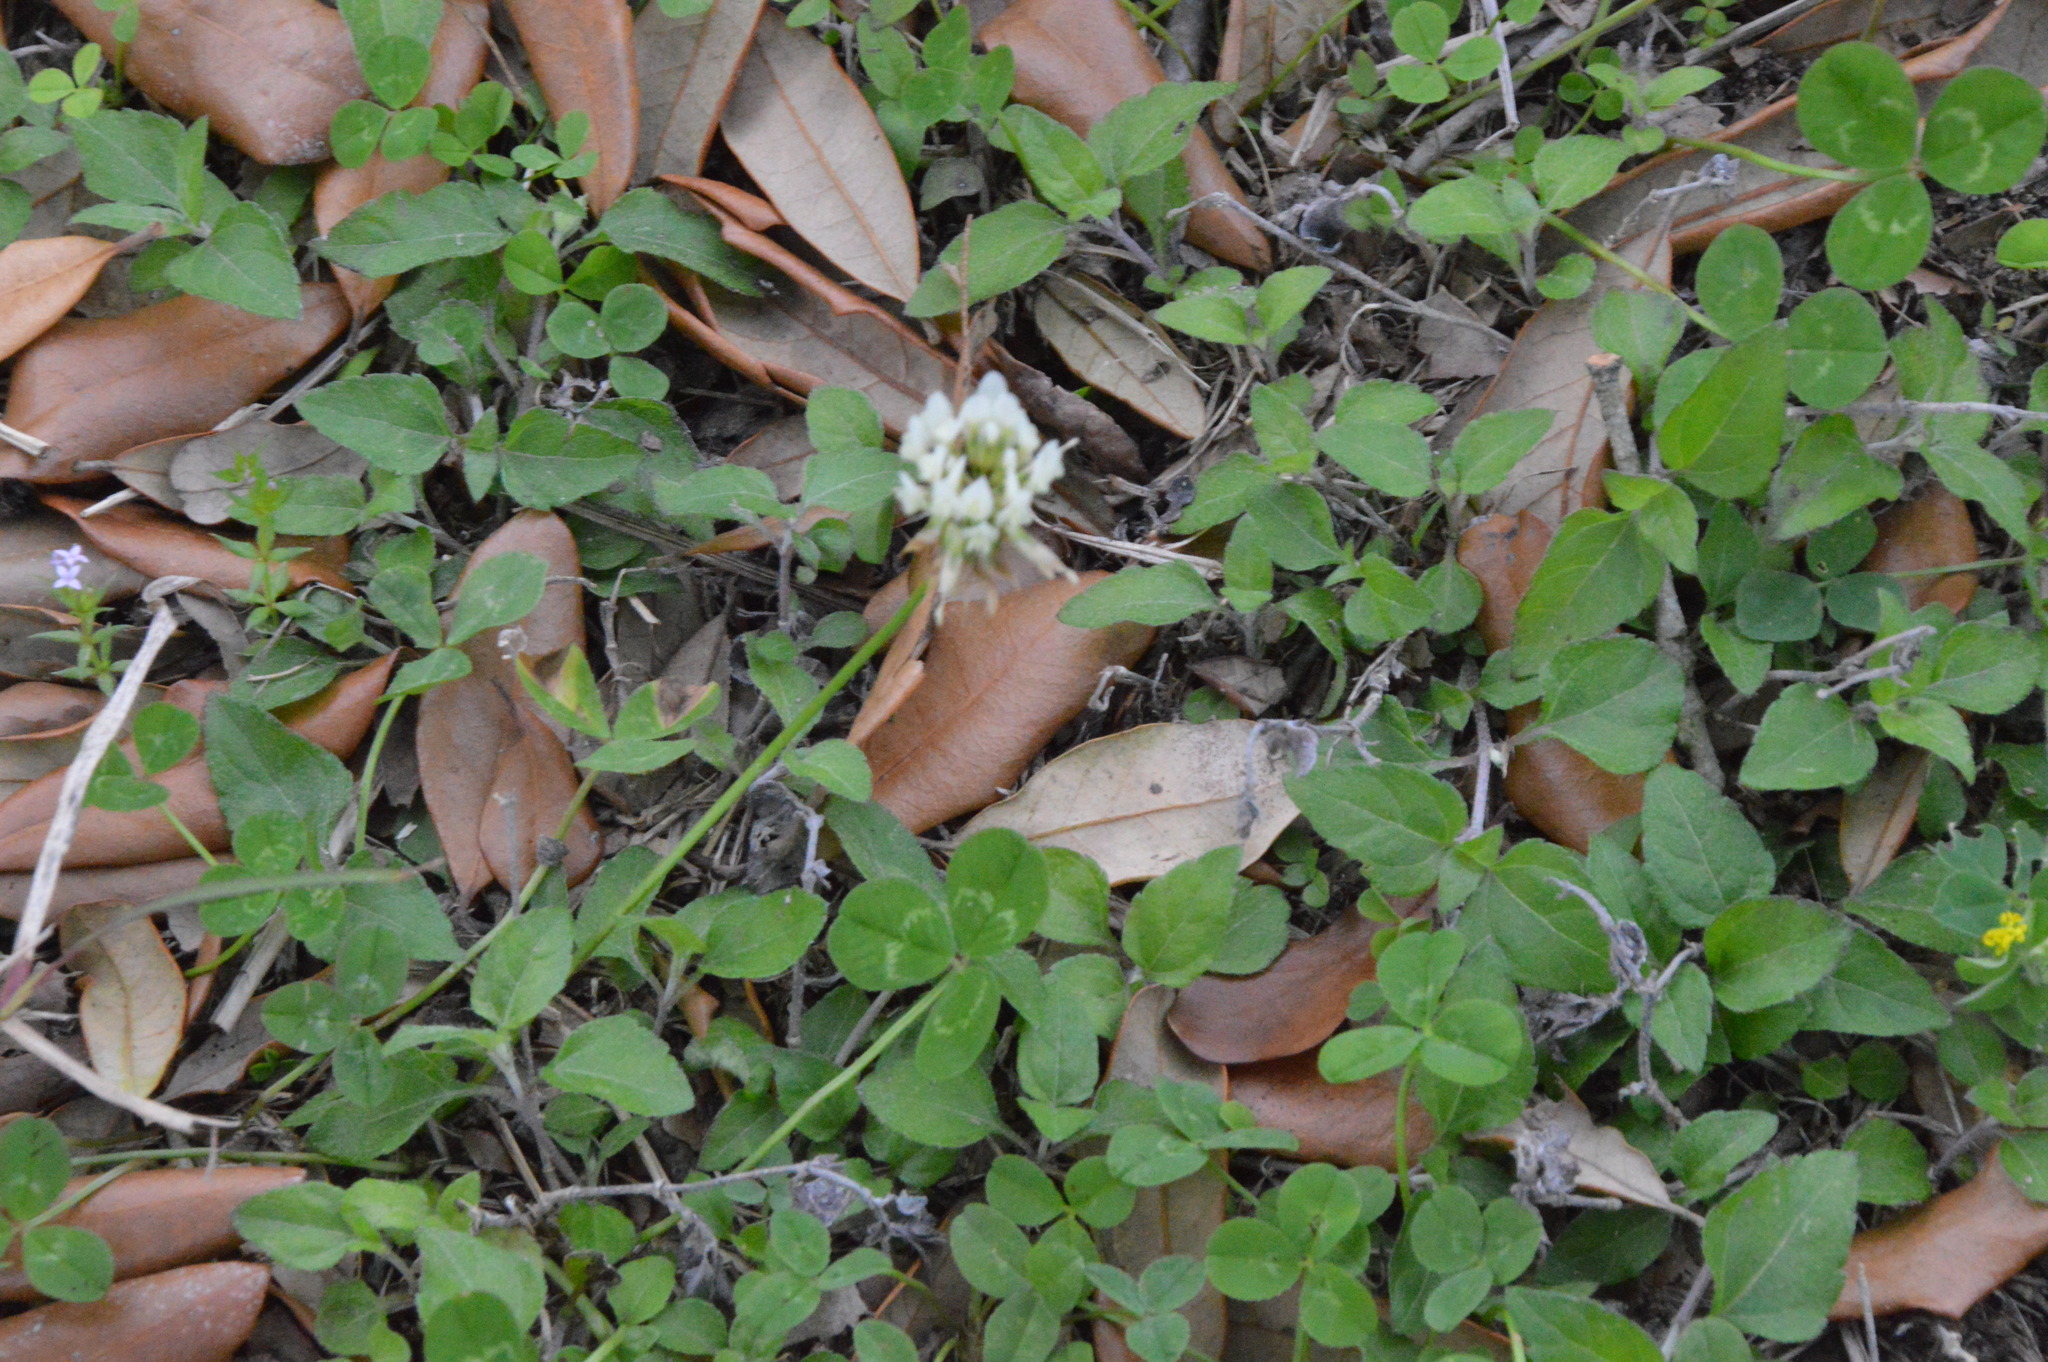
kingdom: Plantae
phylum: Tracheophyta
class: Magnoliopsida
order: Fabales
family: Fabaceae
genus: Trifolium
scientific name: Trifolium repens
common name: White clover
